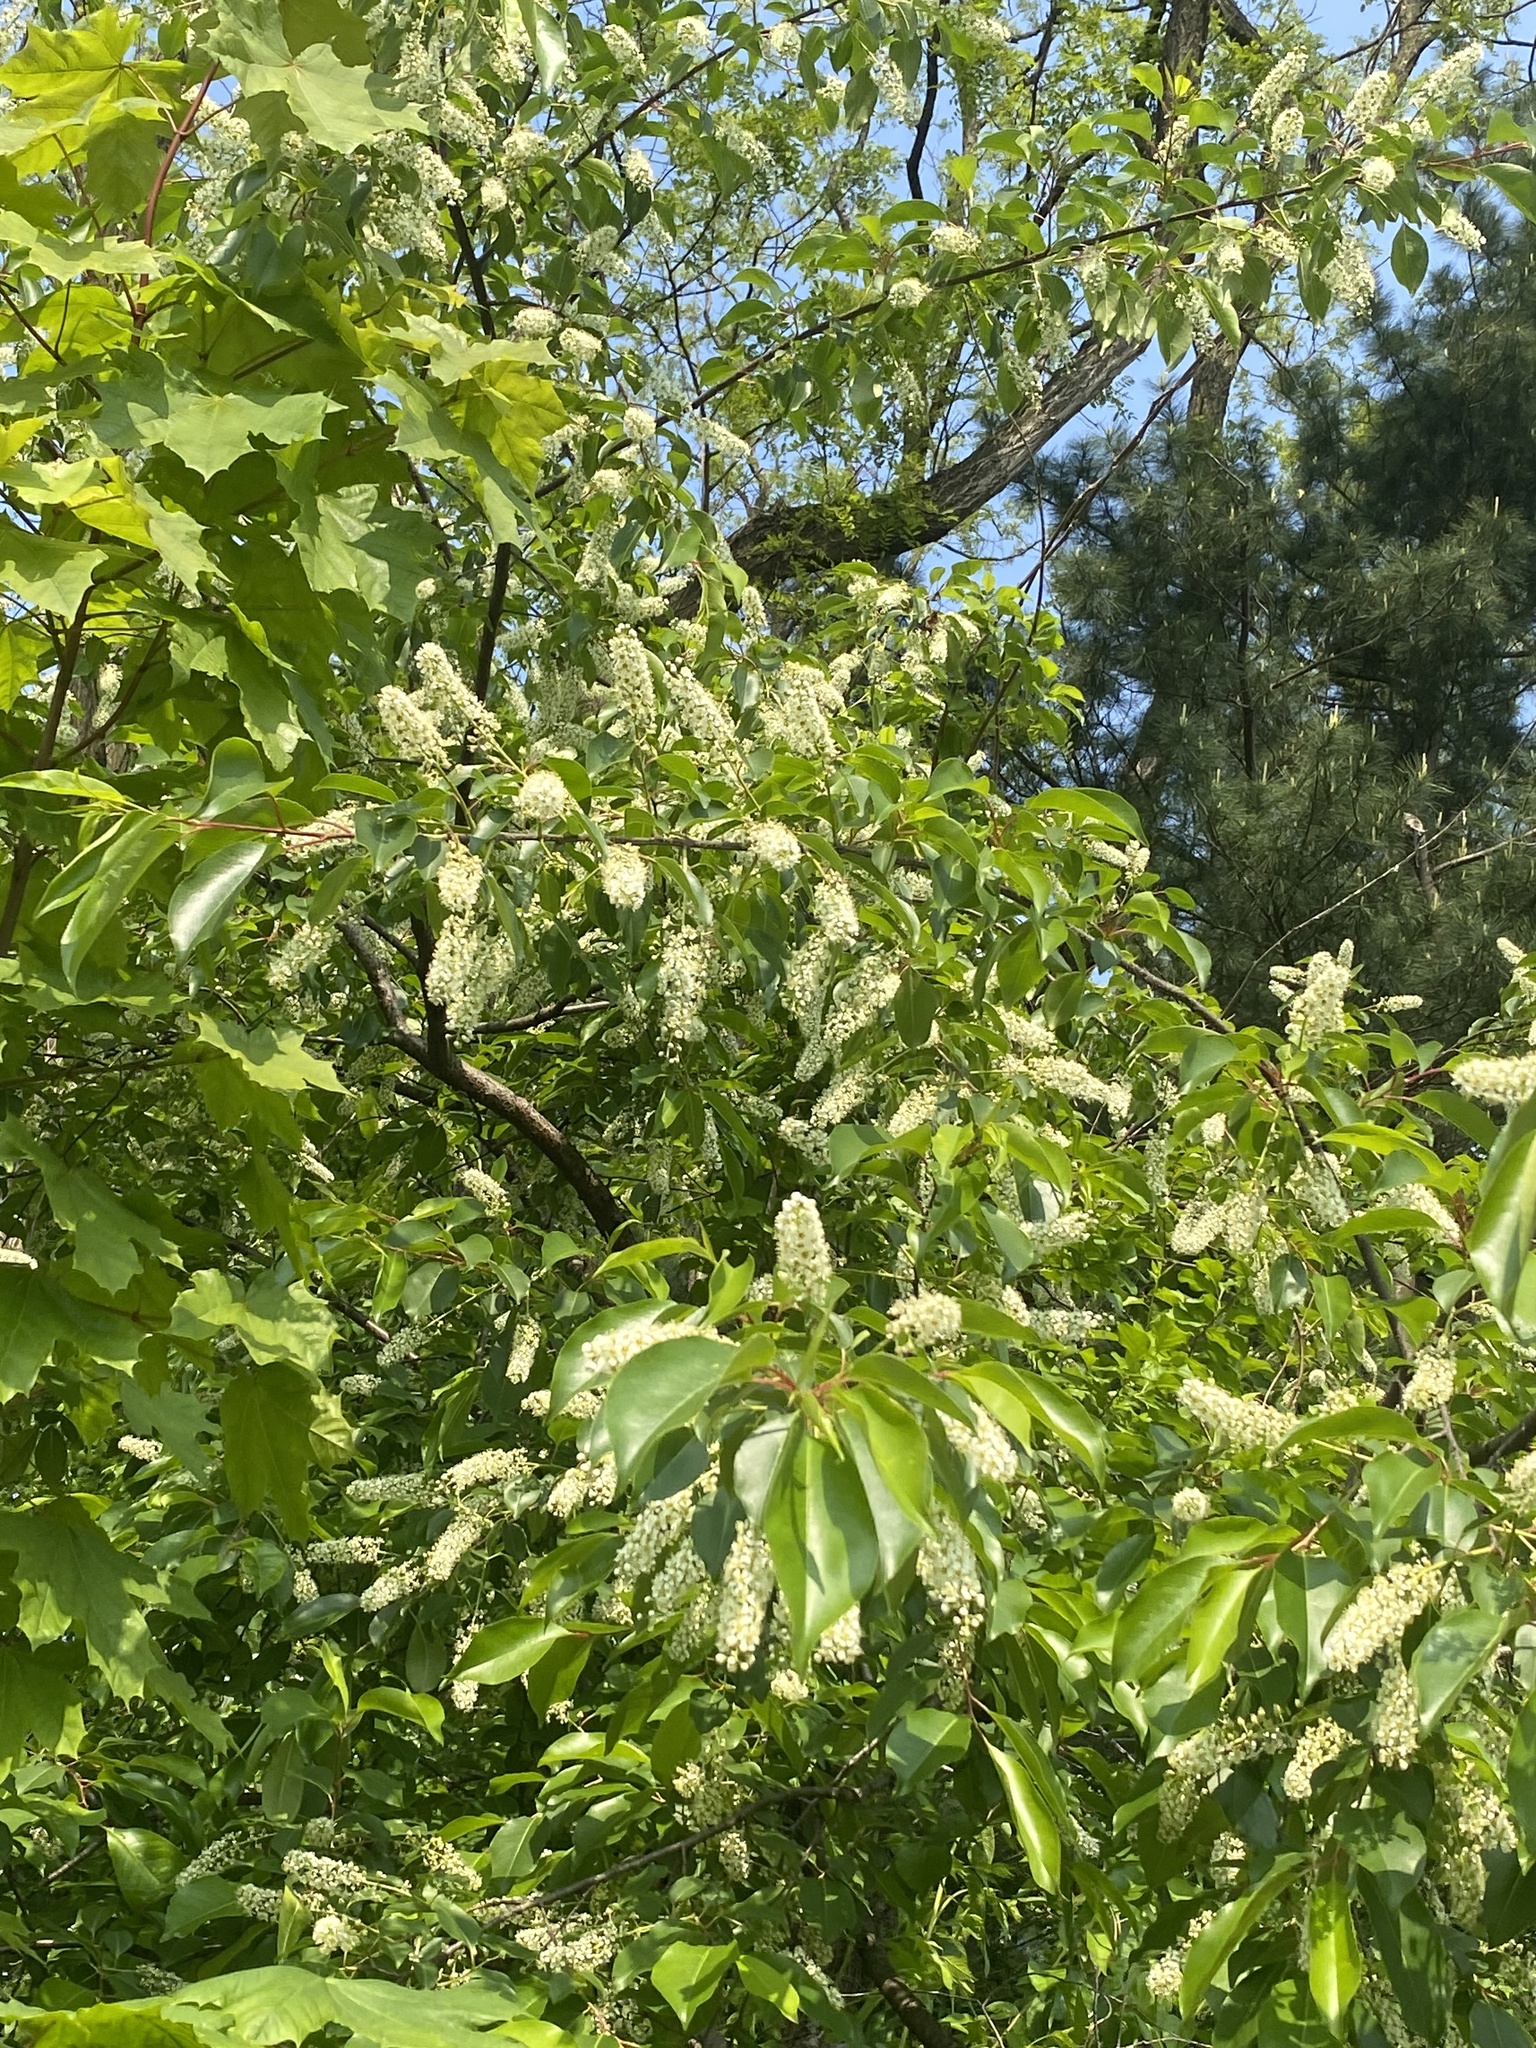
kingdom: Plantae
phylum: Tracheophyta
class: Magnoliopsida
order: Rosales
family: Rosaceae
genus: Prunus
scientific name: Prunus serotina
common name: Black cherry
